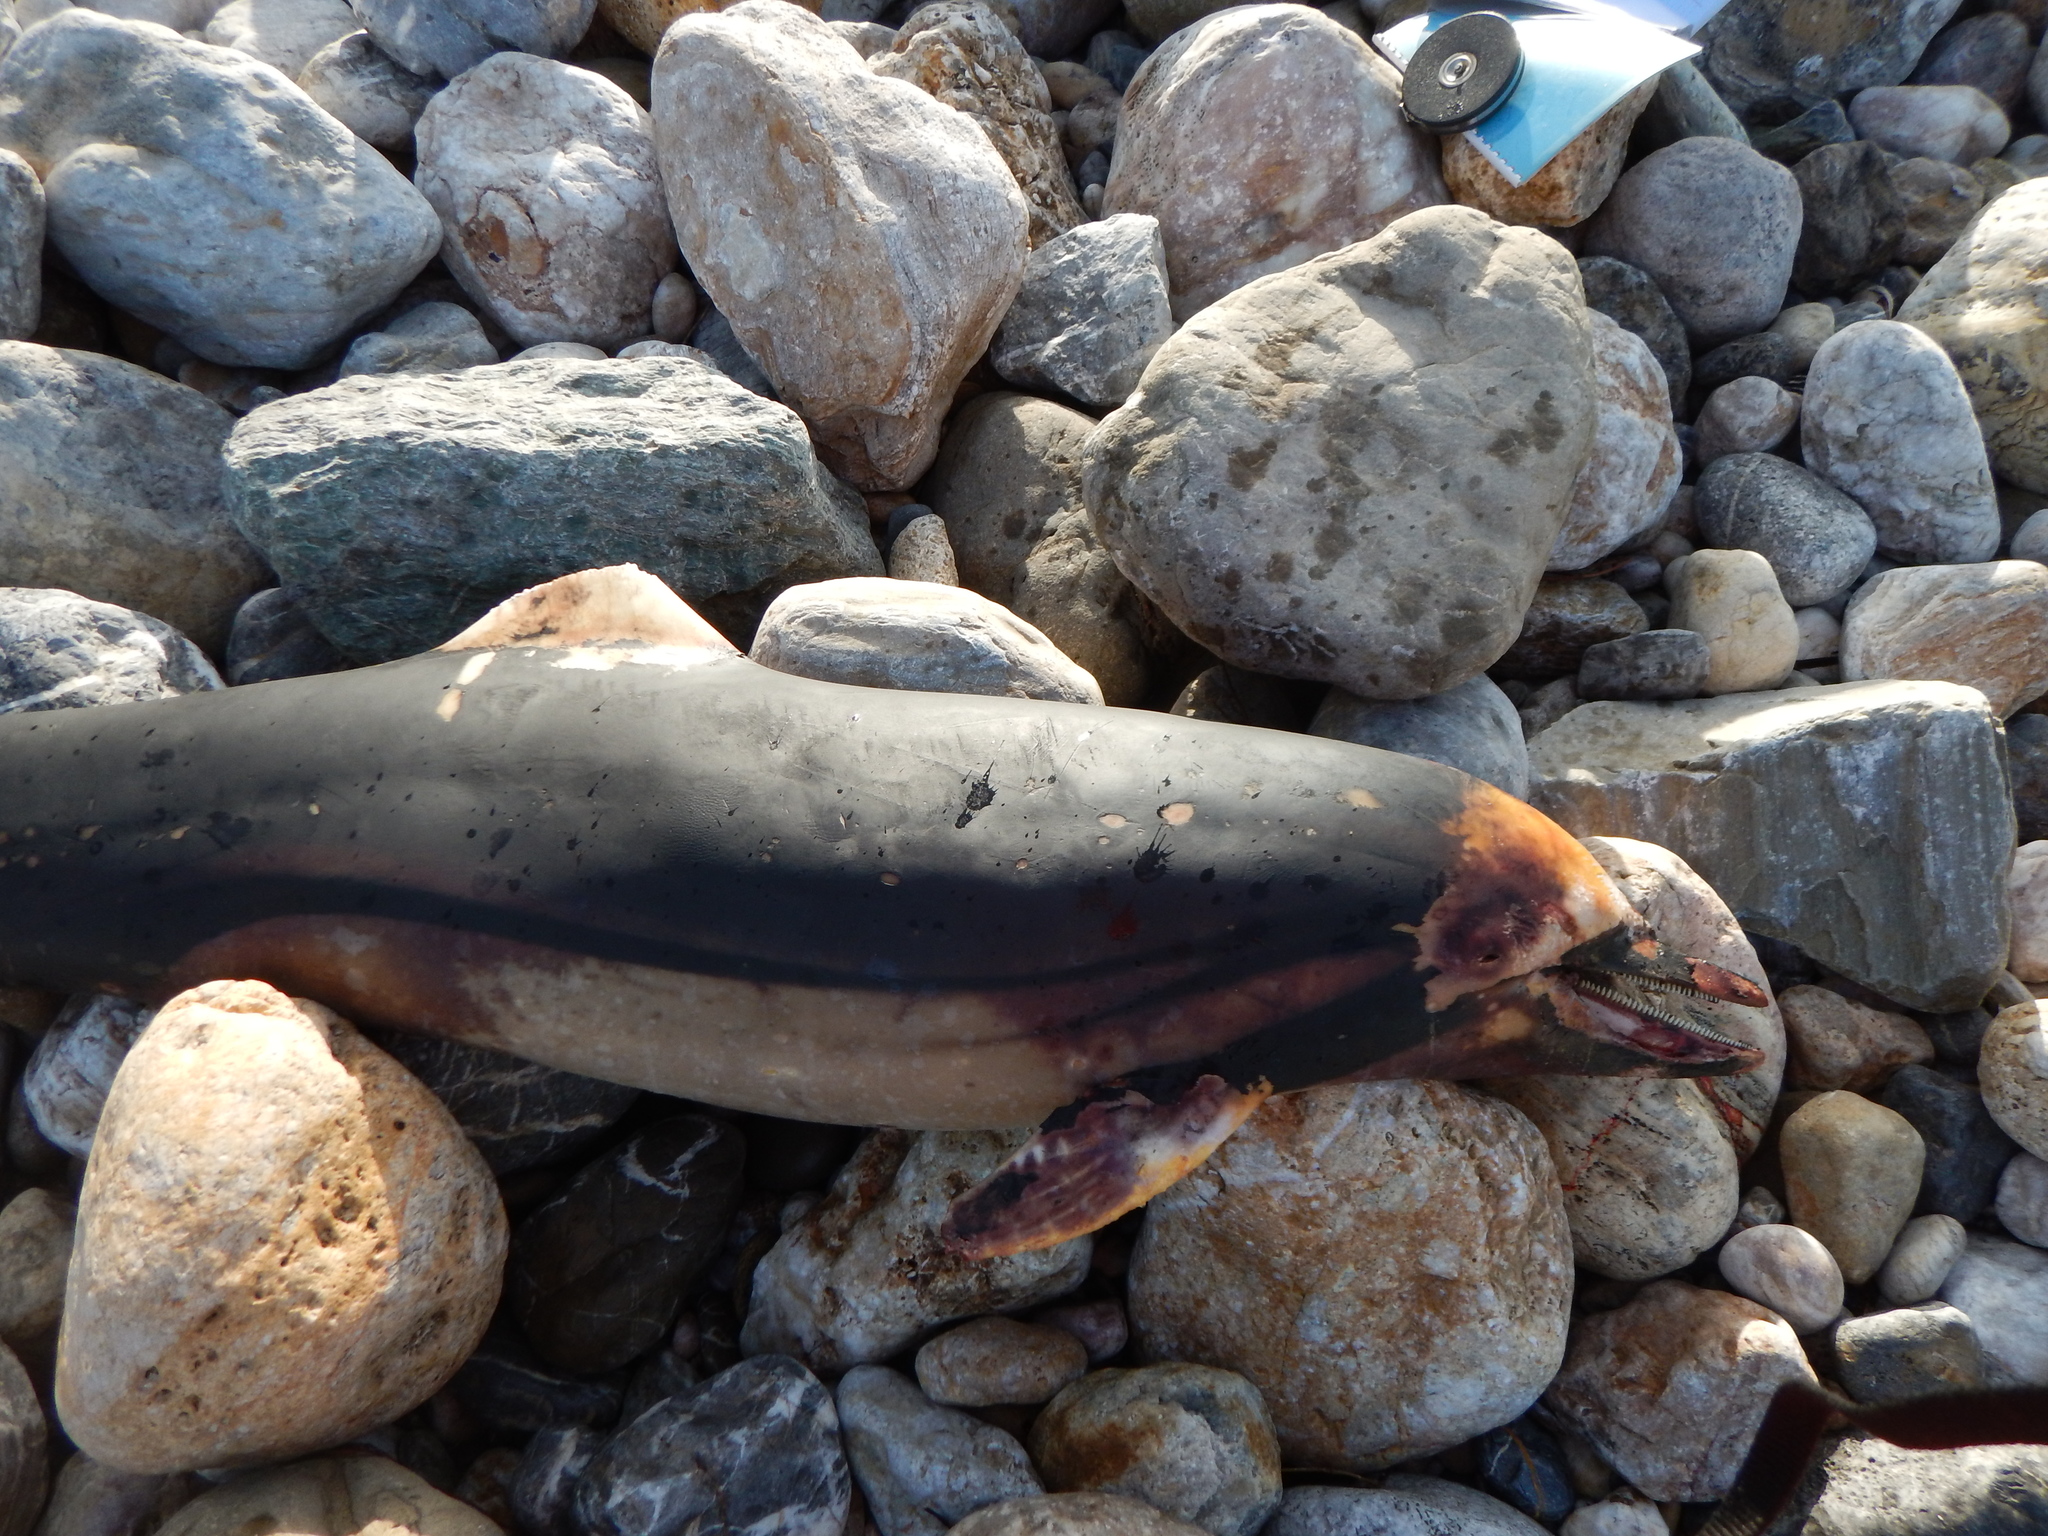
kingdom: Animalia
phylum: Chordata
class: Mammalia
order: Cetacea
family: Delphinidae
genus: Stenella
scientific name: Stenella coeruleoalba
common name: Striped dolphin
